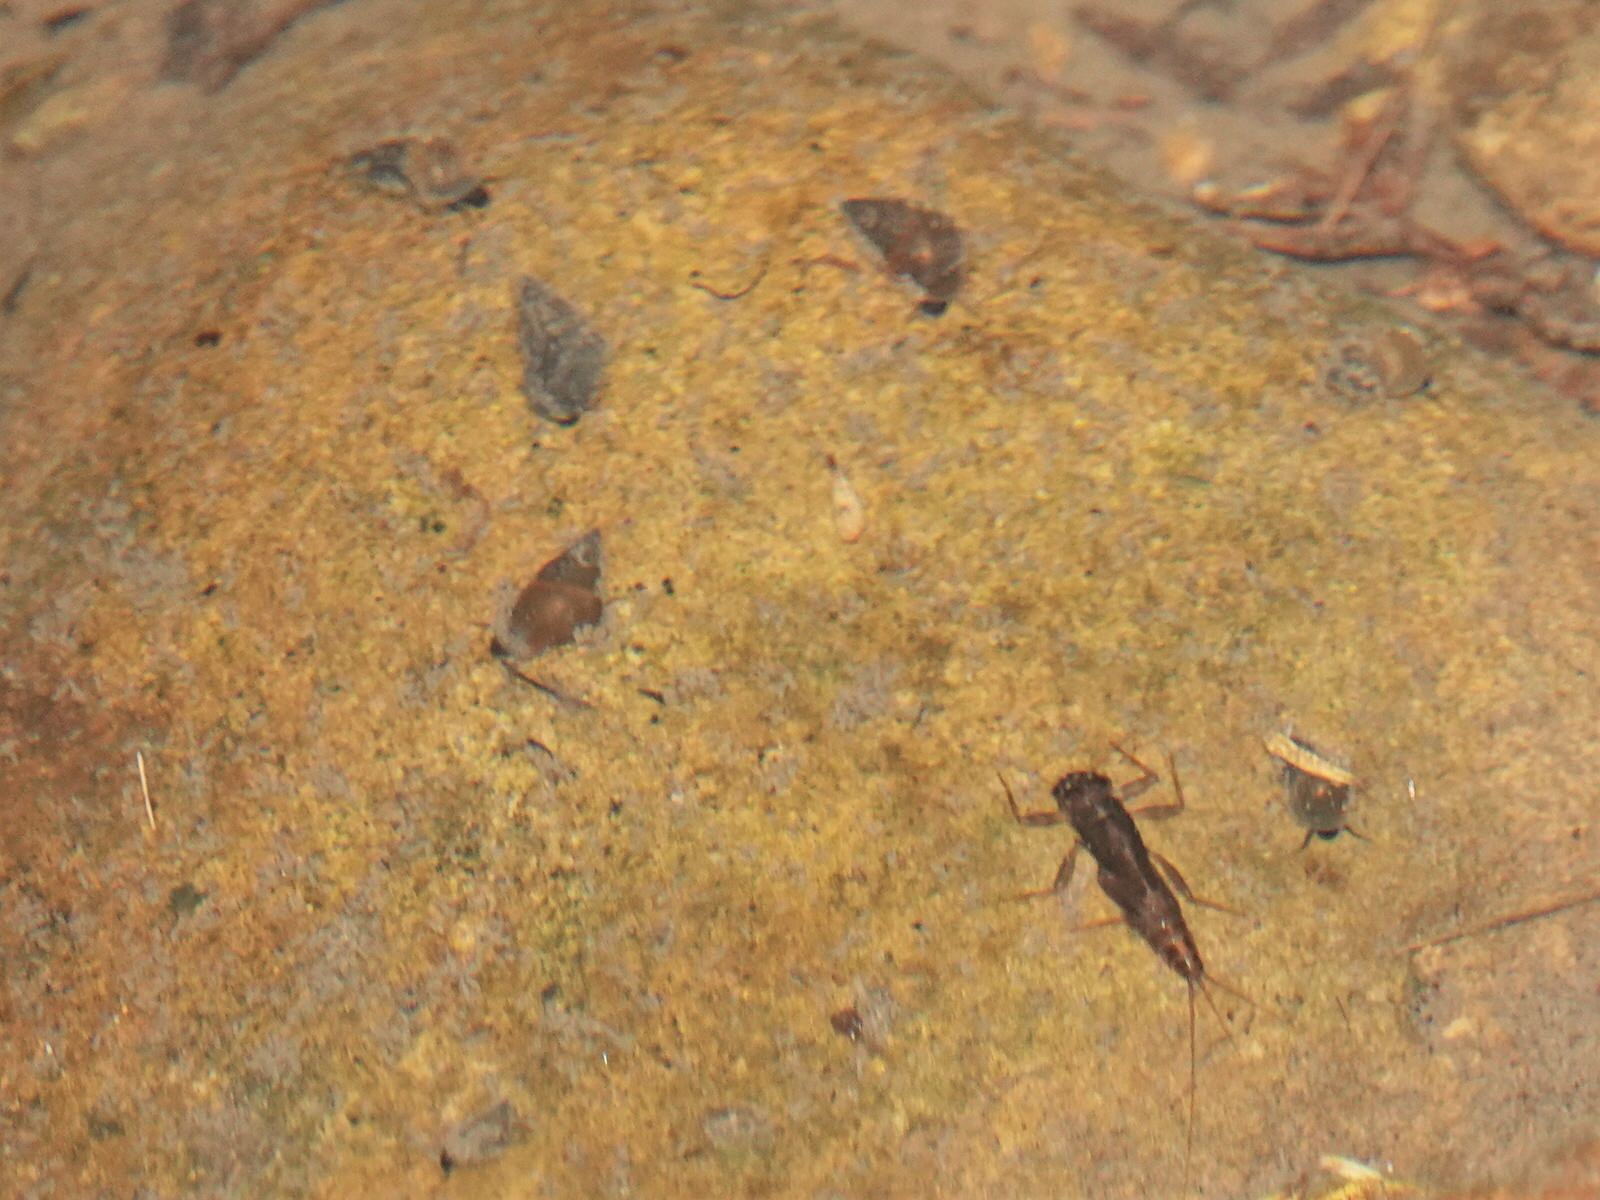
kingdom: Animalia
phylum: Mollusca
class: Gastropoda
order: Littorinimorpha
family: Tateidae
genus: Potamopyrgus
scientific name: Potamopyrgus antipodarum
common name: Jenkins' spire snail
